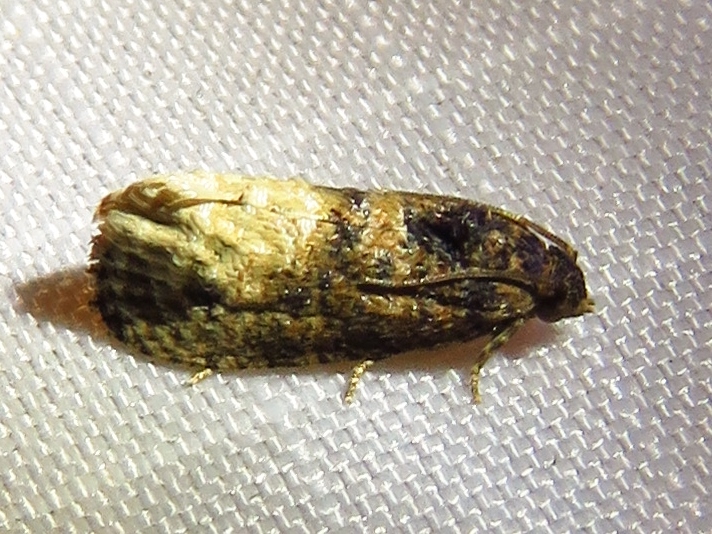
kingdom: Animalia
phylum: Arthropoda
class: Insecta
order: Lepidoptera
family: Tortricidae
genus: Ecdytolopha
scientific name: Ecdytolopha mana
